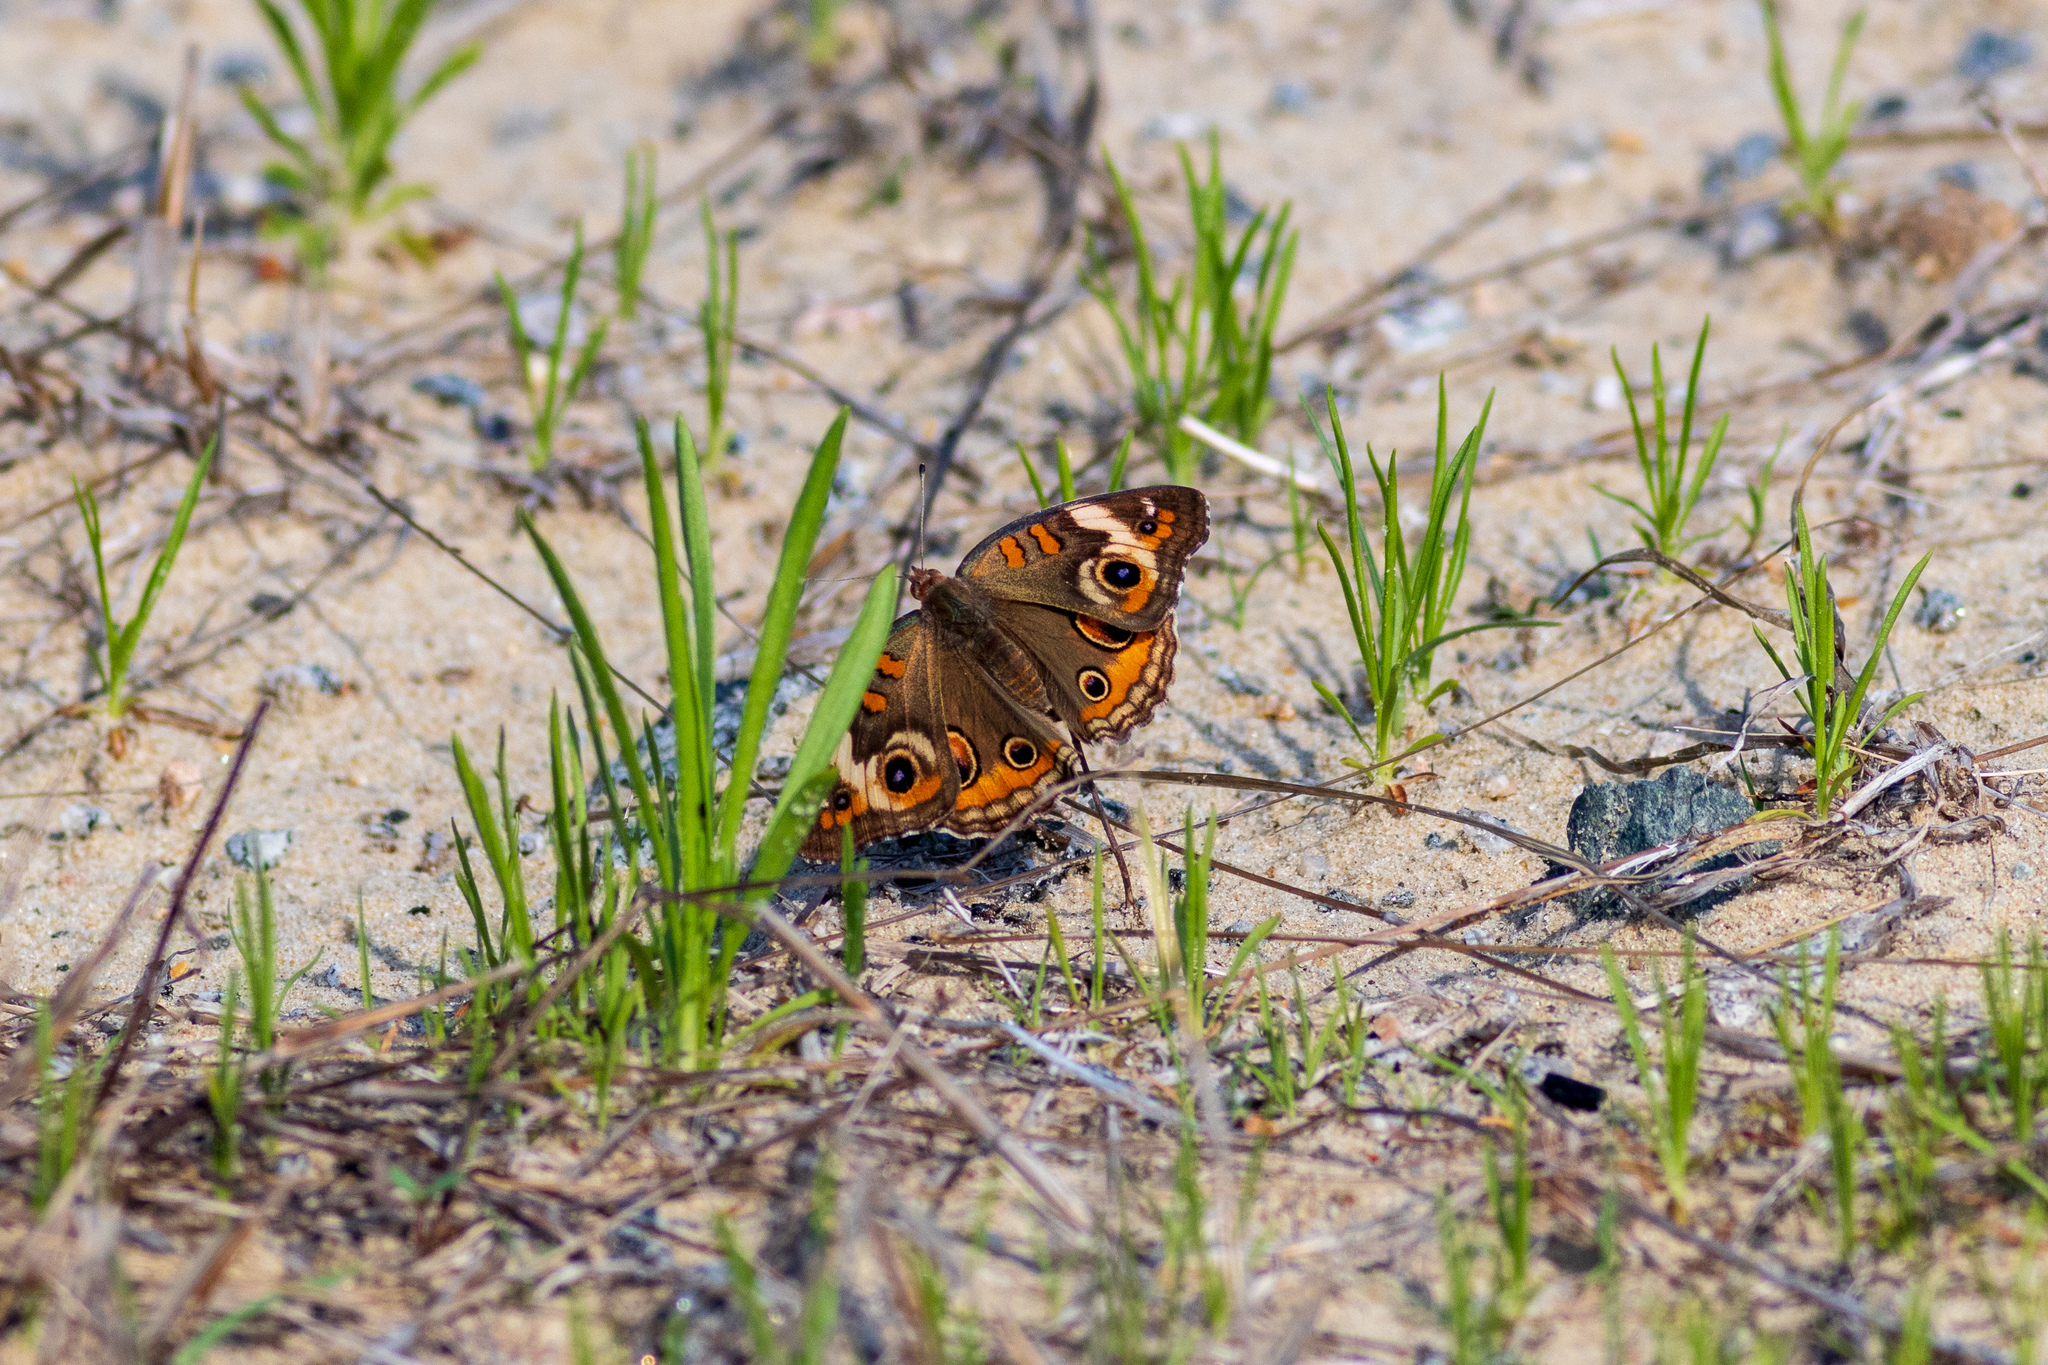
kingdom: Animalia
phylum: Arthropoda
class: Insecta
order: Lepidoptera
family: Nymphalidae
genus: Junonia
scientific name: Junonia coenia
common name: Common buckeye
